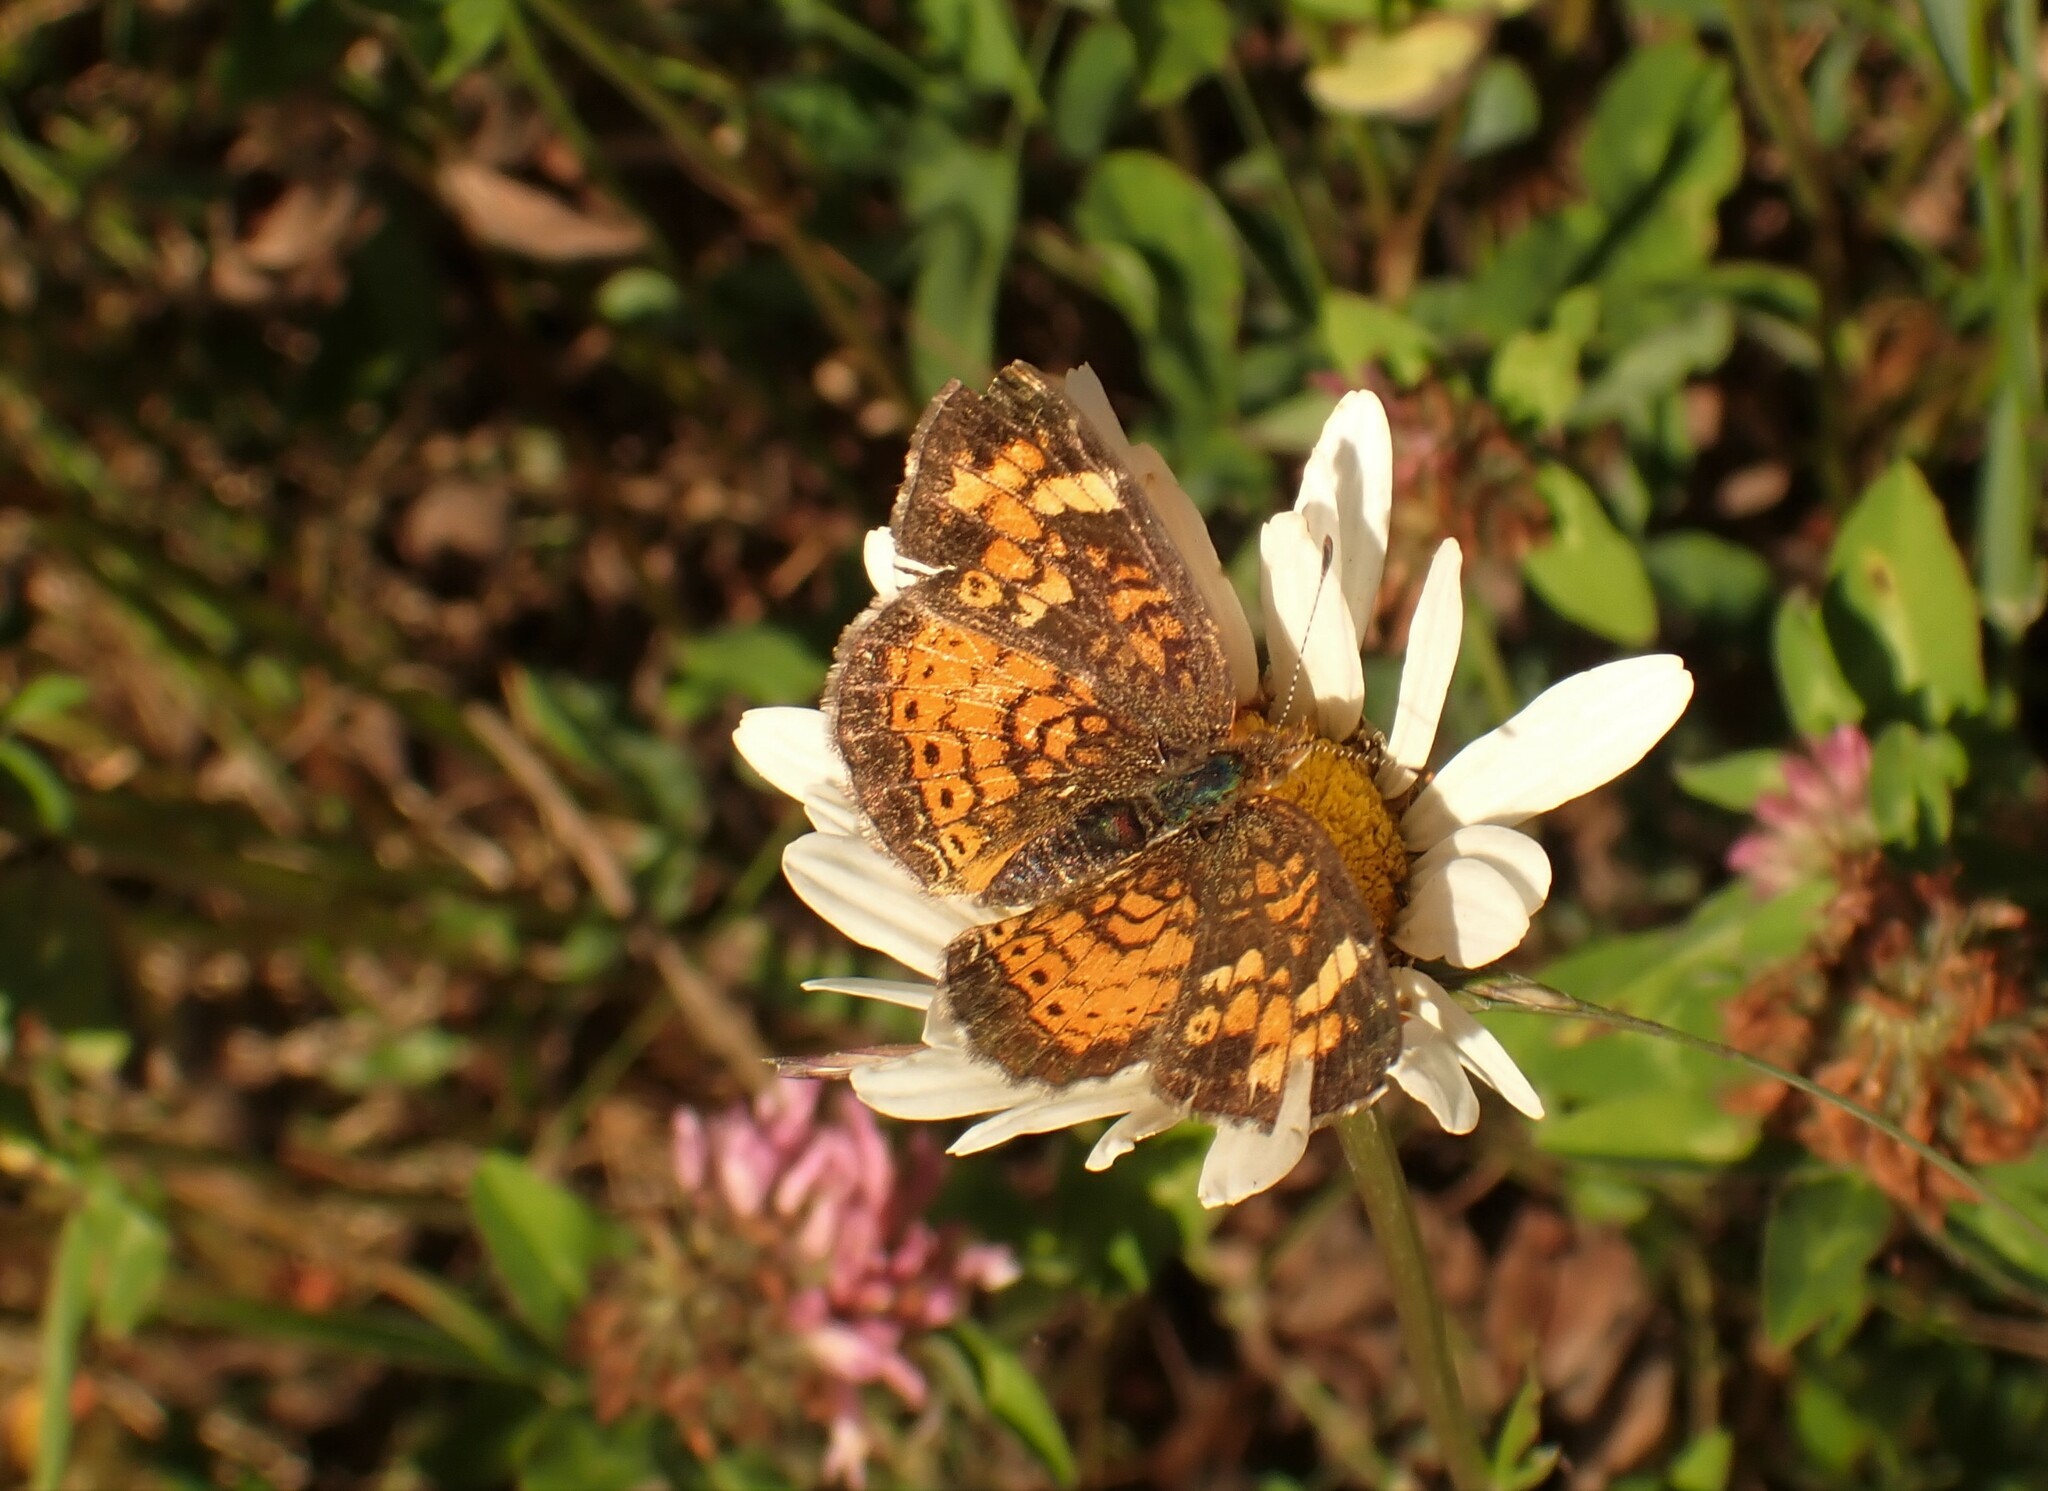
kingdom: Animalia
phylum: Arthropoda
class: Insecta
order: Lepidoptera
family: Nymphalidae
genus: Phyciodes
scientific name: Phyciodes tharos
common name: Pearl crescent
